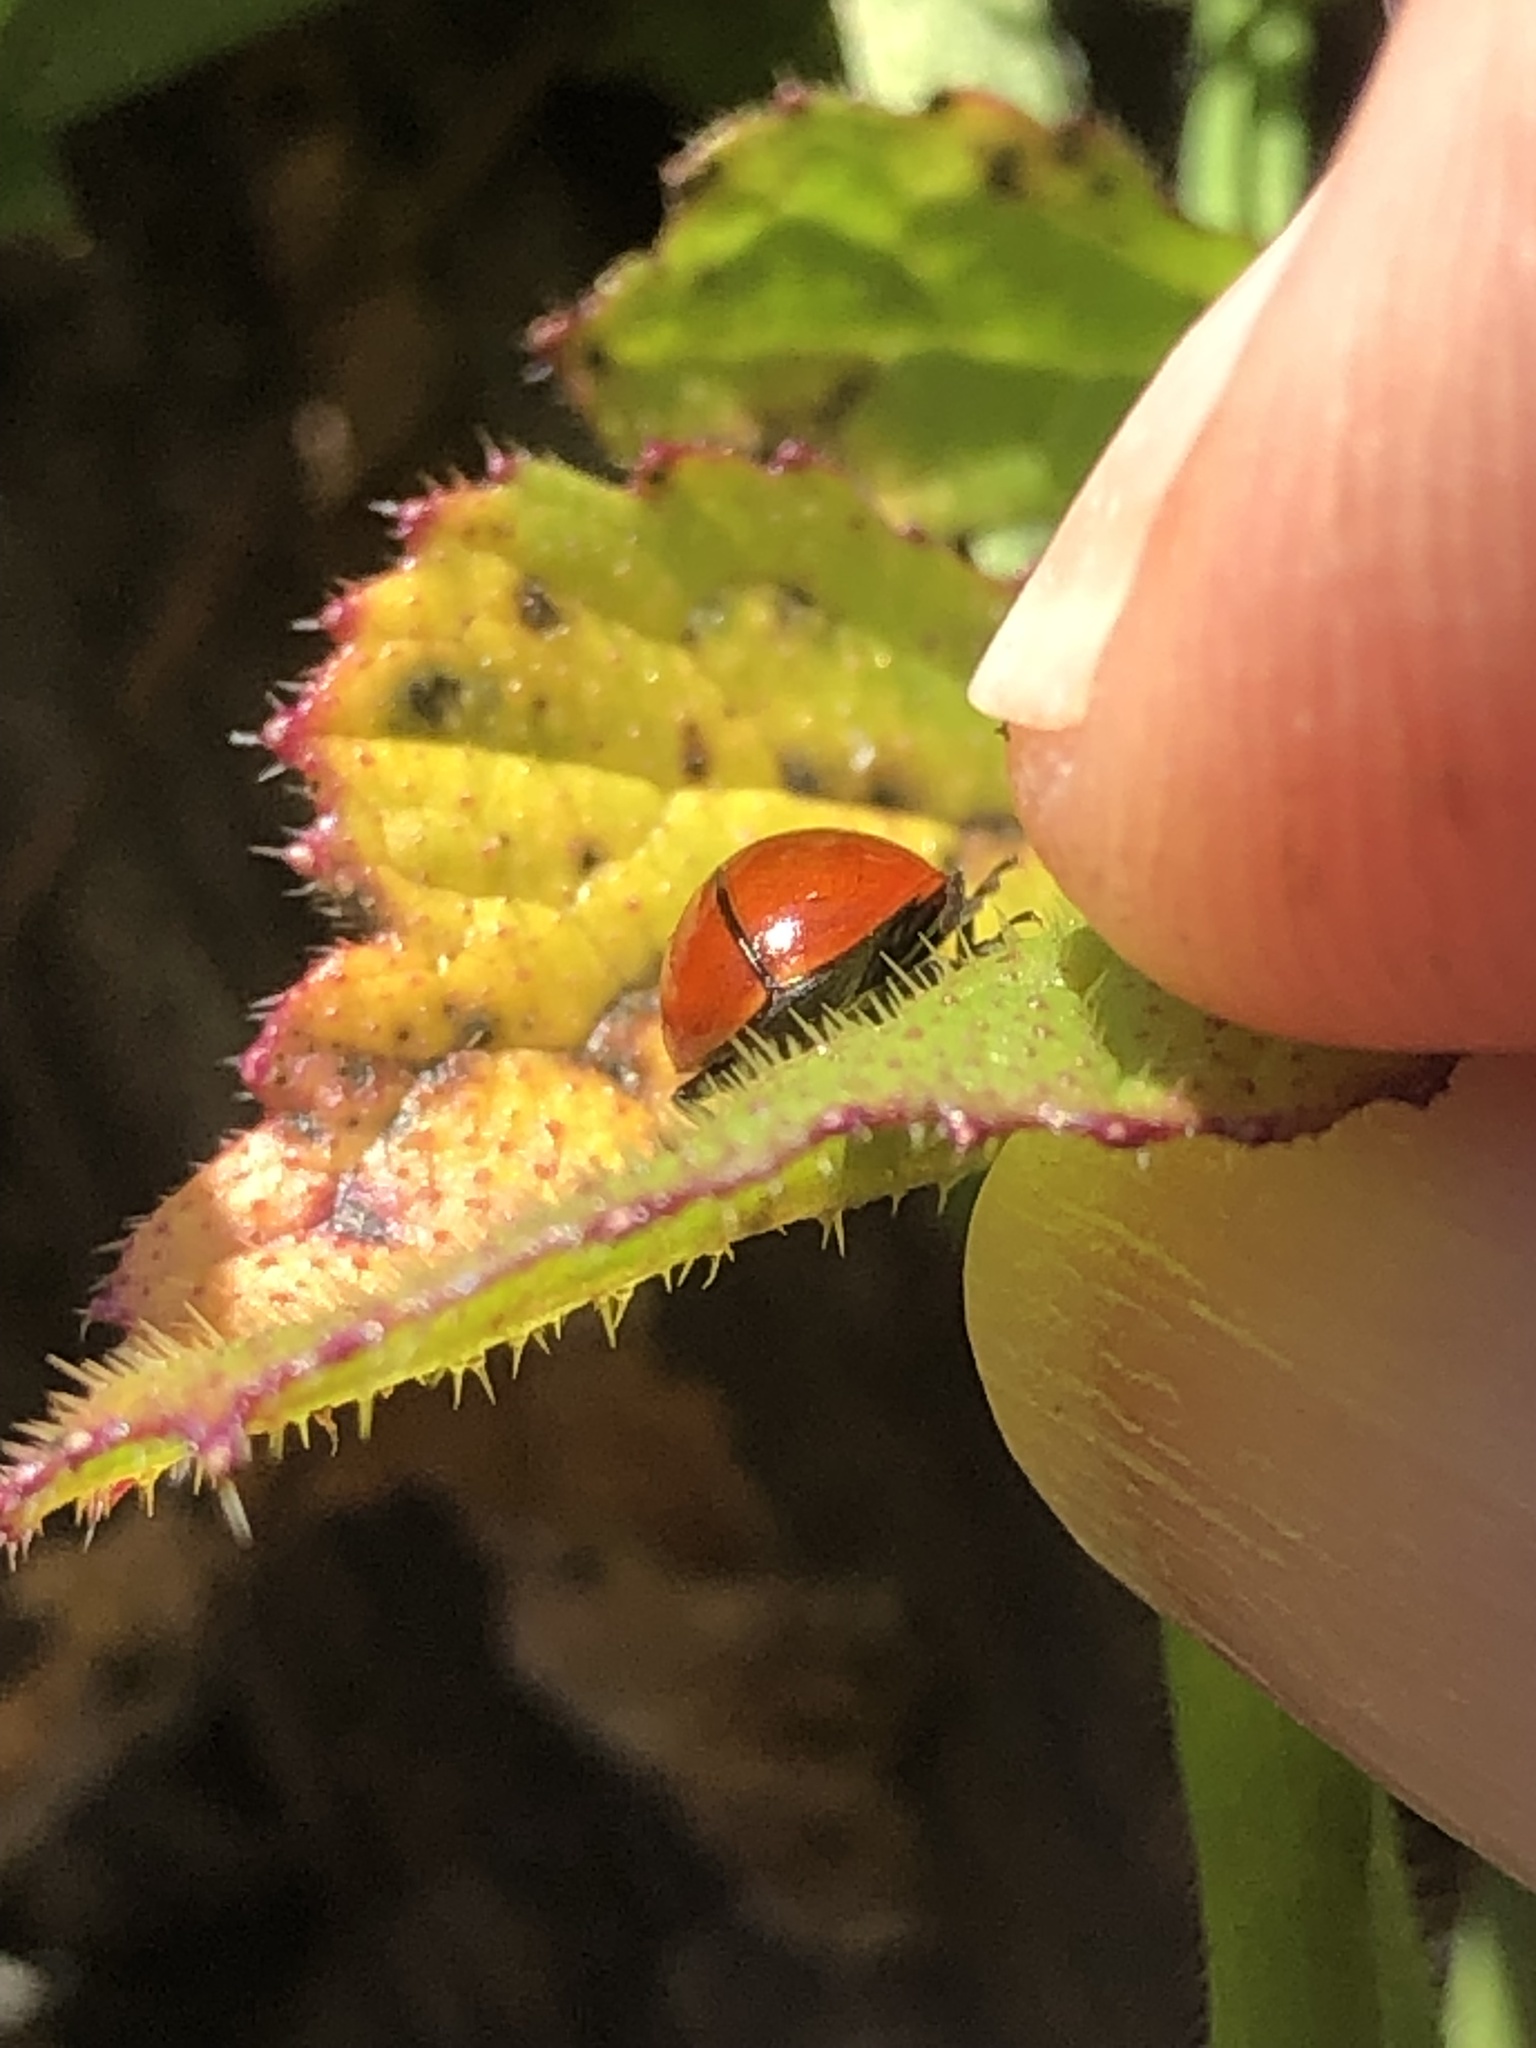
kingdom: Animalia
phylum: Arthropoda
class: Insecta
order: Coleoptera
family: Coccinellidae
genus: Coccinella
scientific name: Coccinella californica
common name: Lady beetle
